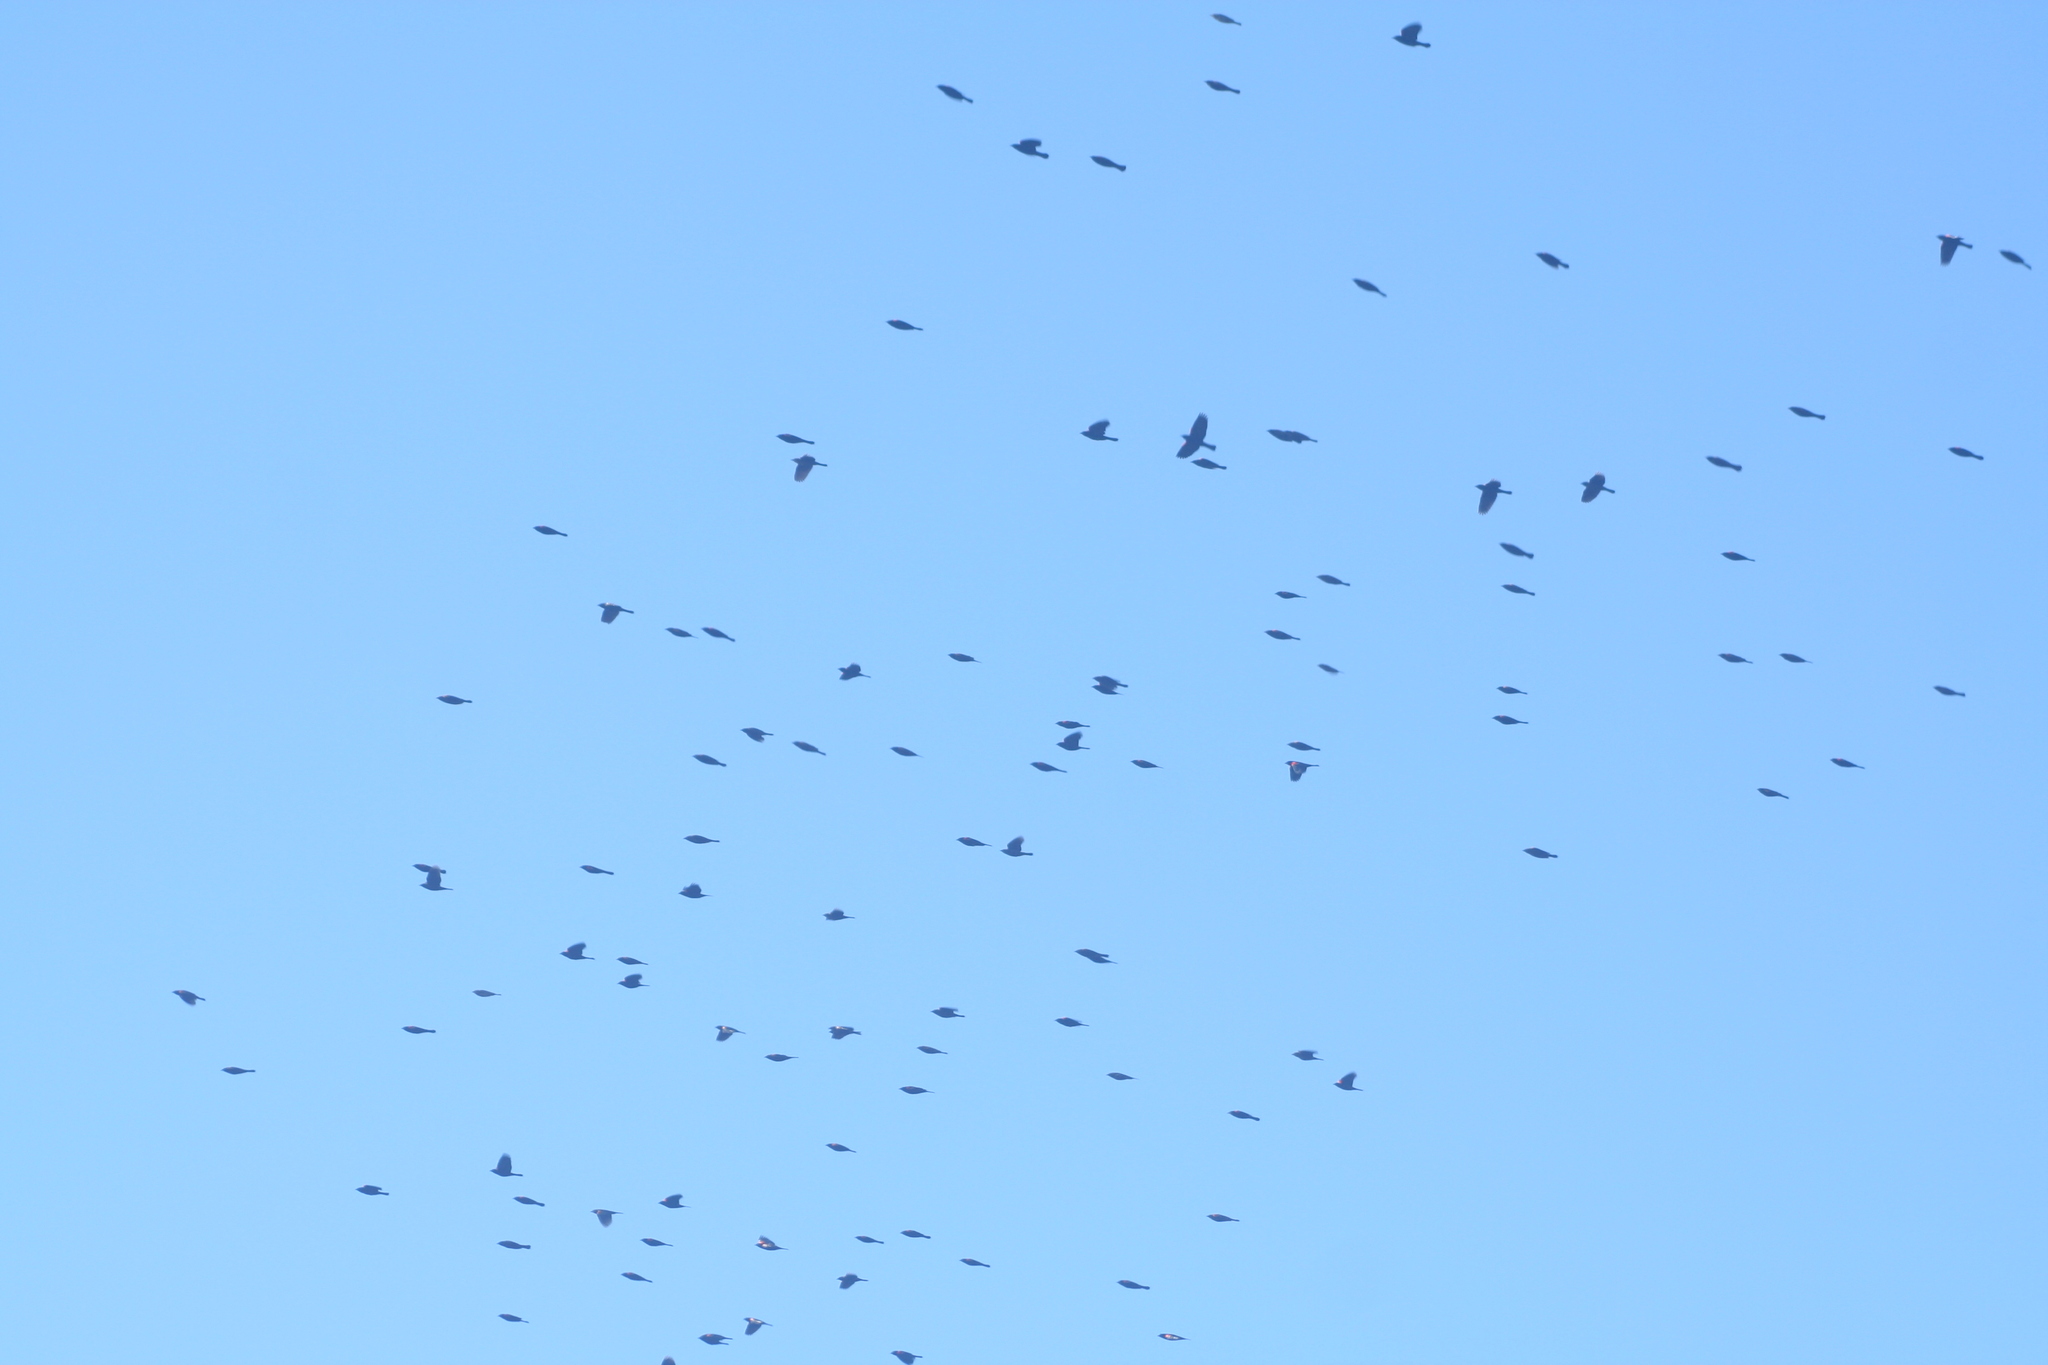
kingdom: Animalia
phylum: Chordata
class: Aves
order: Passeriformes
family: Icteridae
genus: Agelaius
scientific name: Agelaius phoeniceus
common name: Red-winged blackbird
